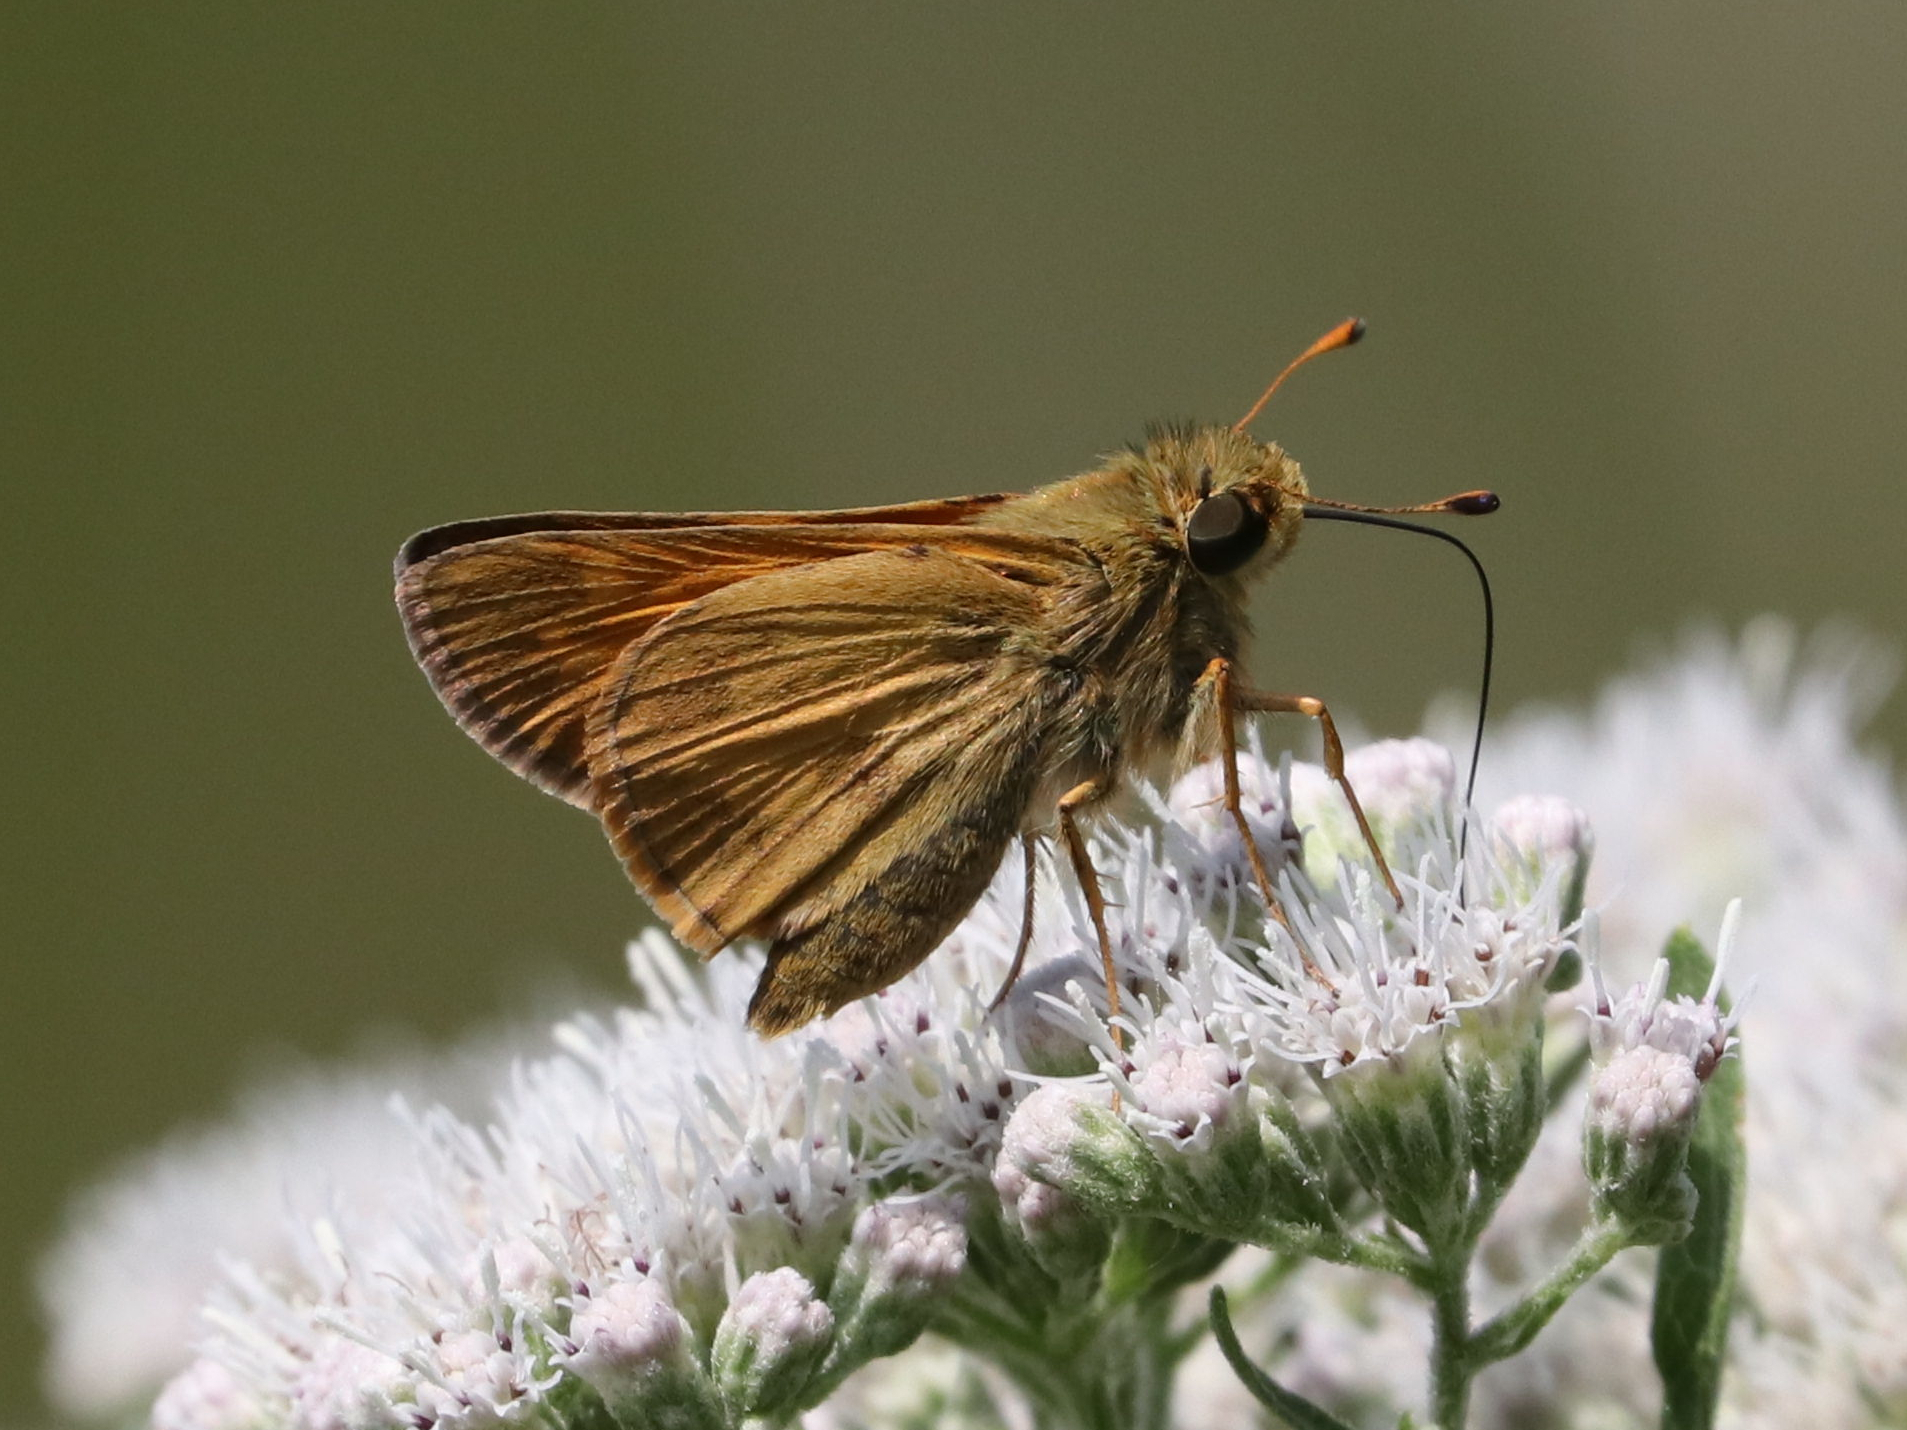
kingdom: Animalia
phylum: Arthropoda
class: Insecta
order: Lepidoptera
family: Hesperiidae
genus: Atalopedes
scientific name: Atalopedes
